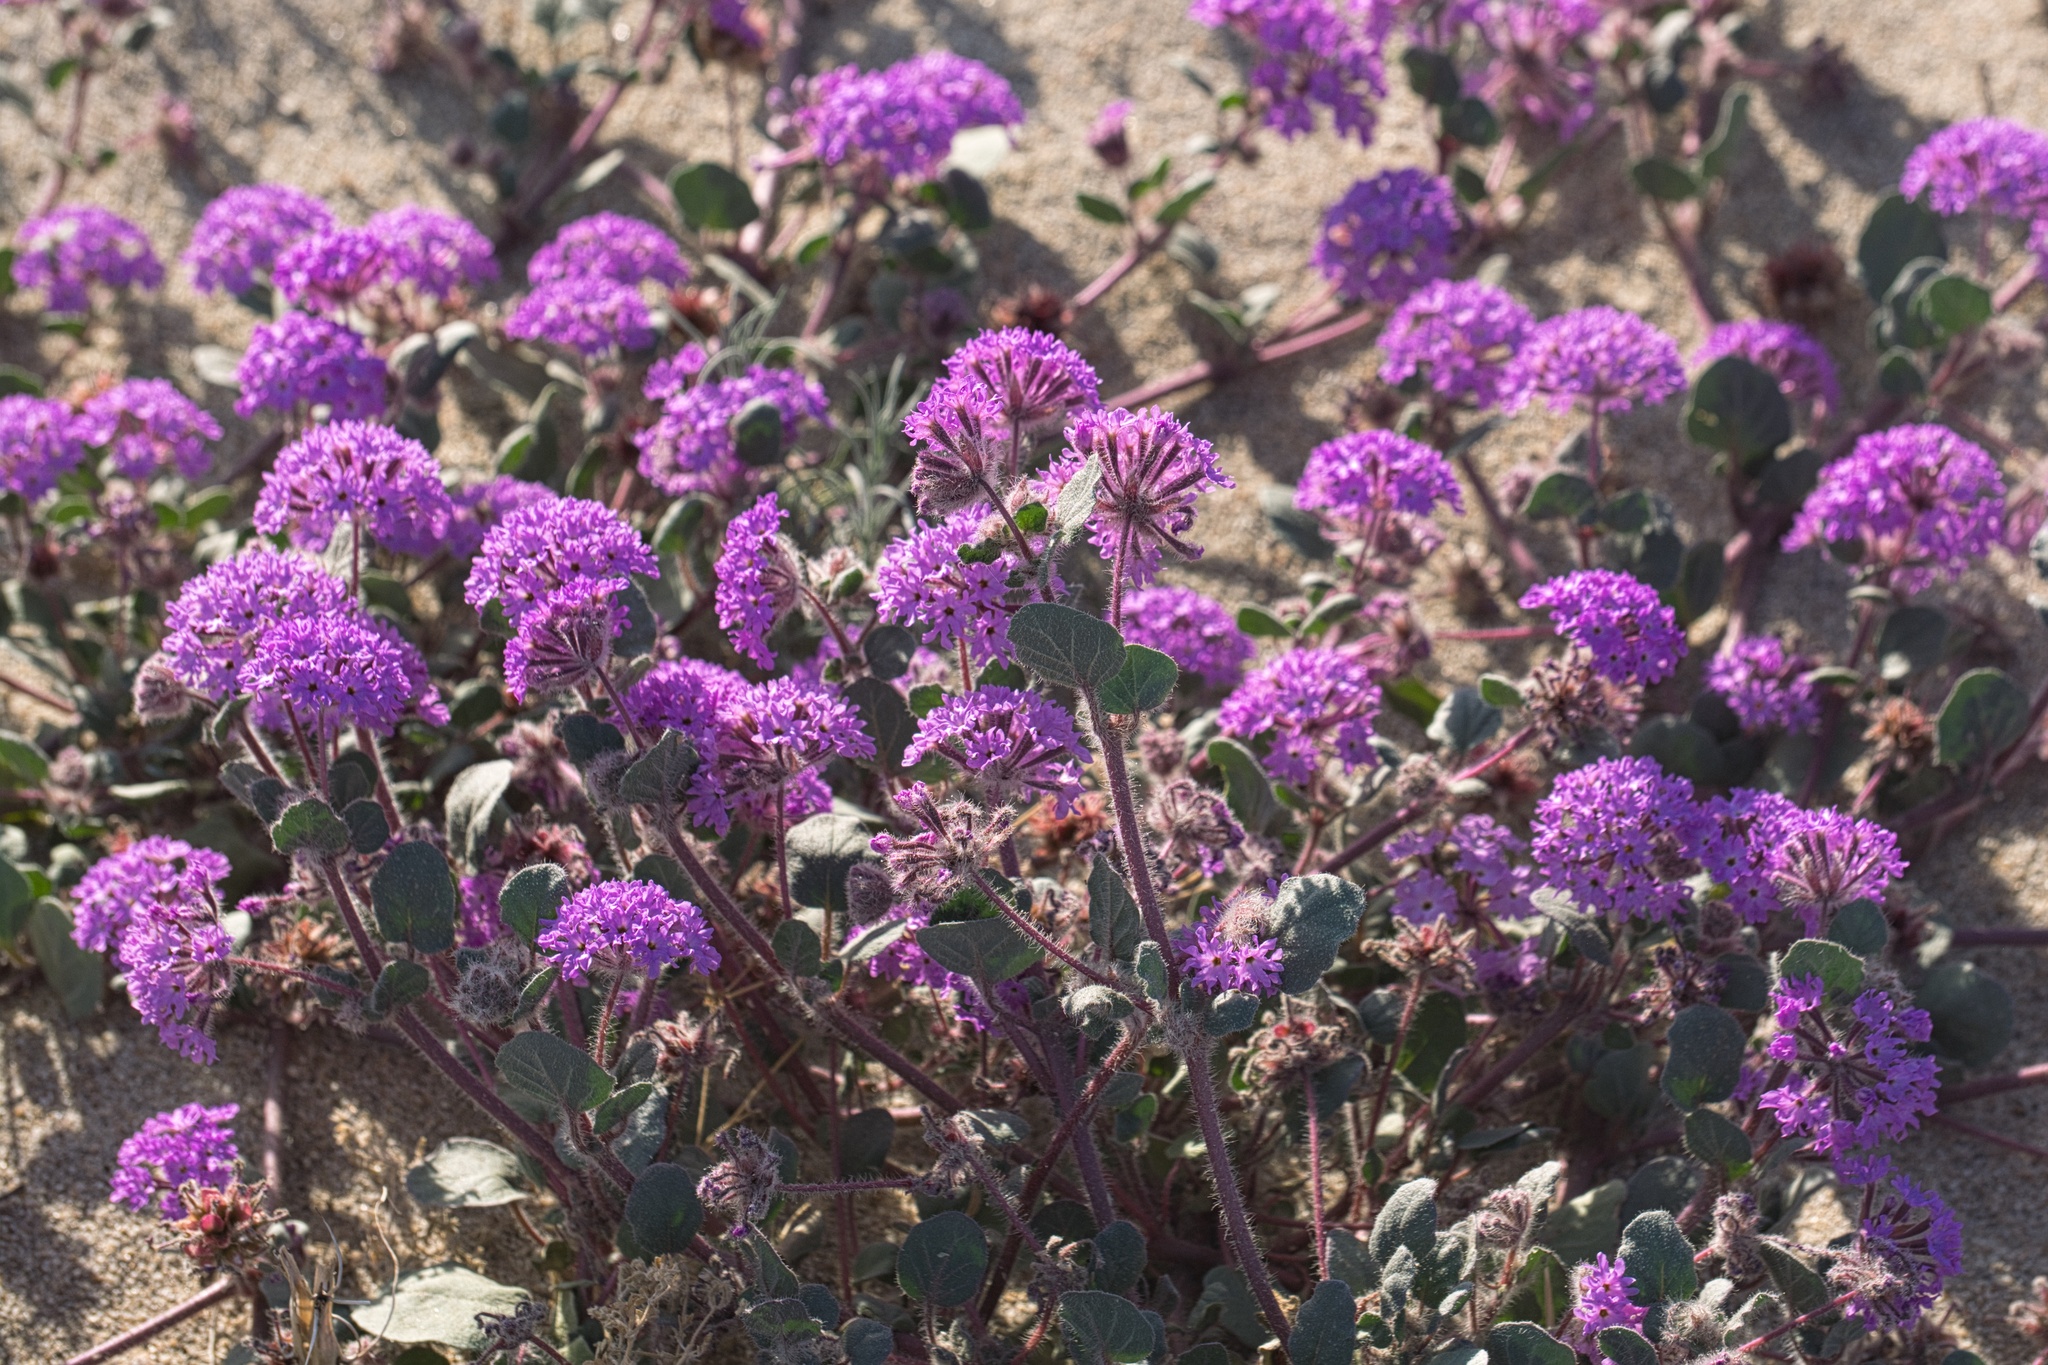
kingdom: Plantae
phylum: Tracheophyta
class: Magnoliopsida
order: Caryophyllales
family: Nyctaginaceae
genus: Abronia
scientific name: Abronia villosa
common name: Desert sand-verbena
